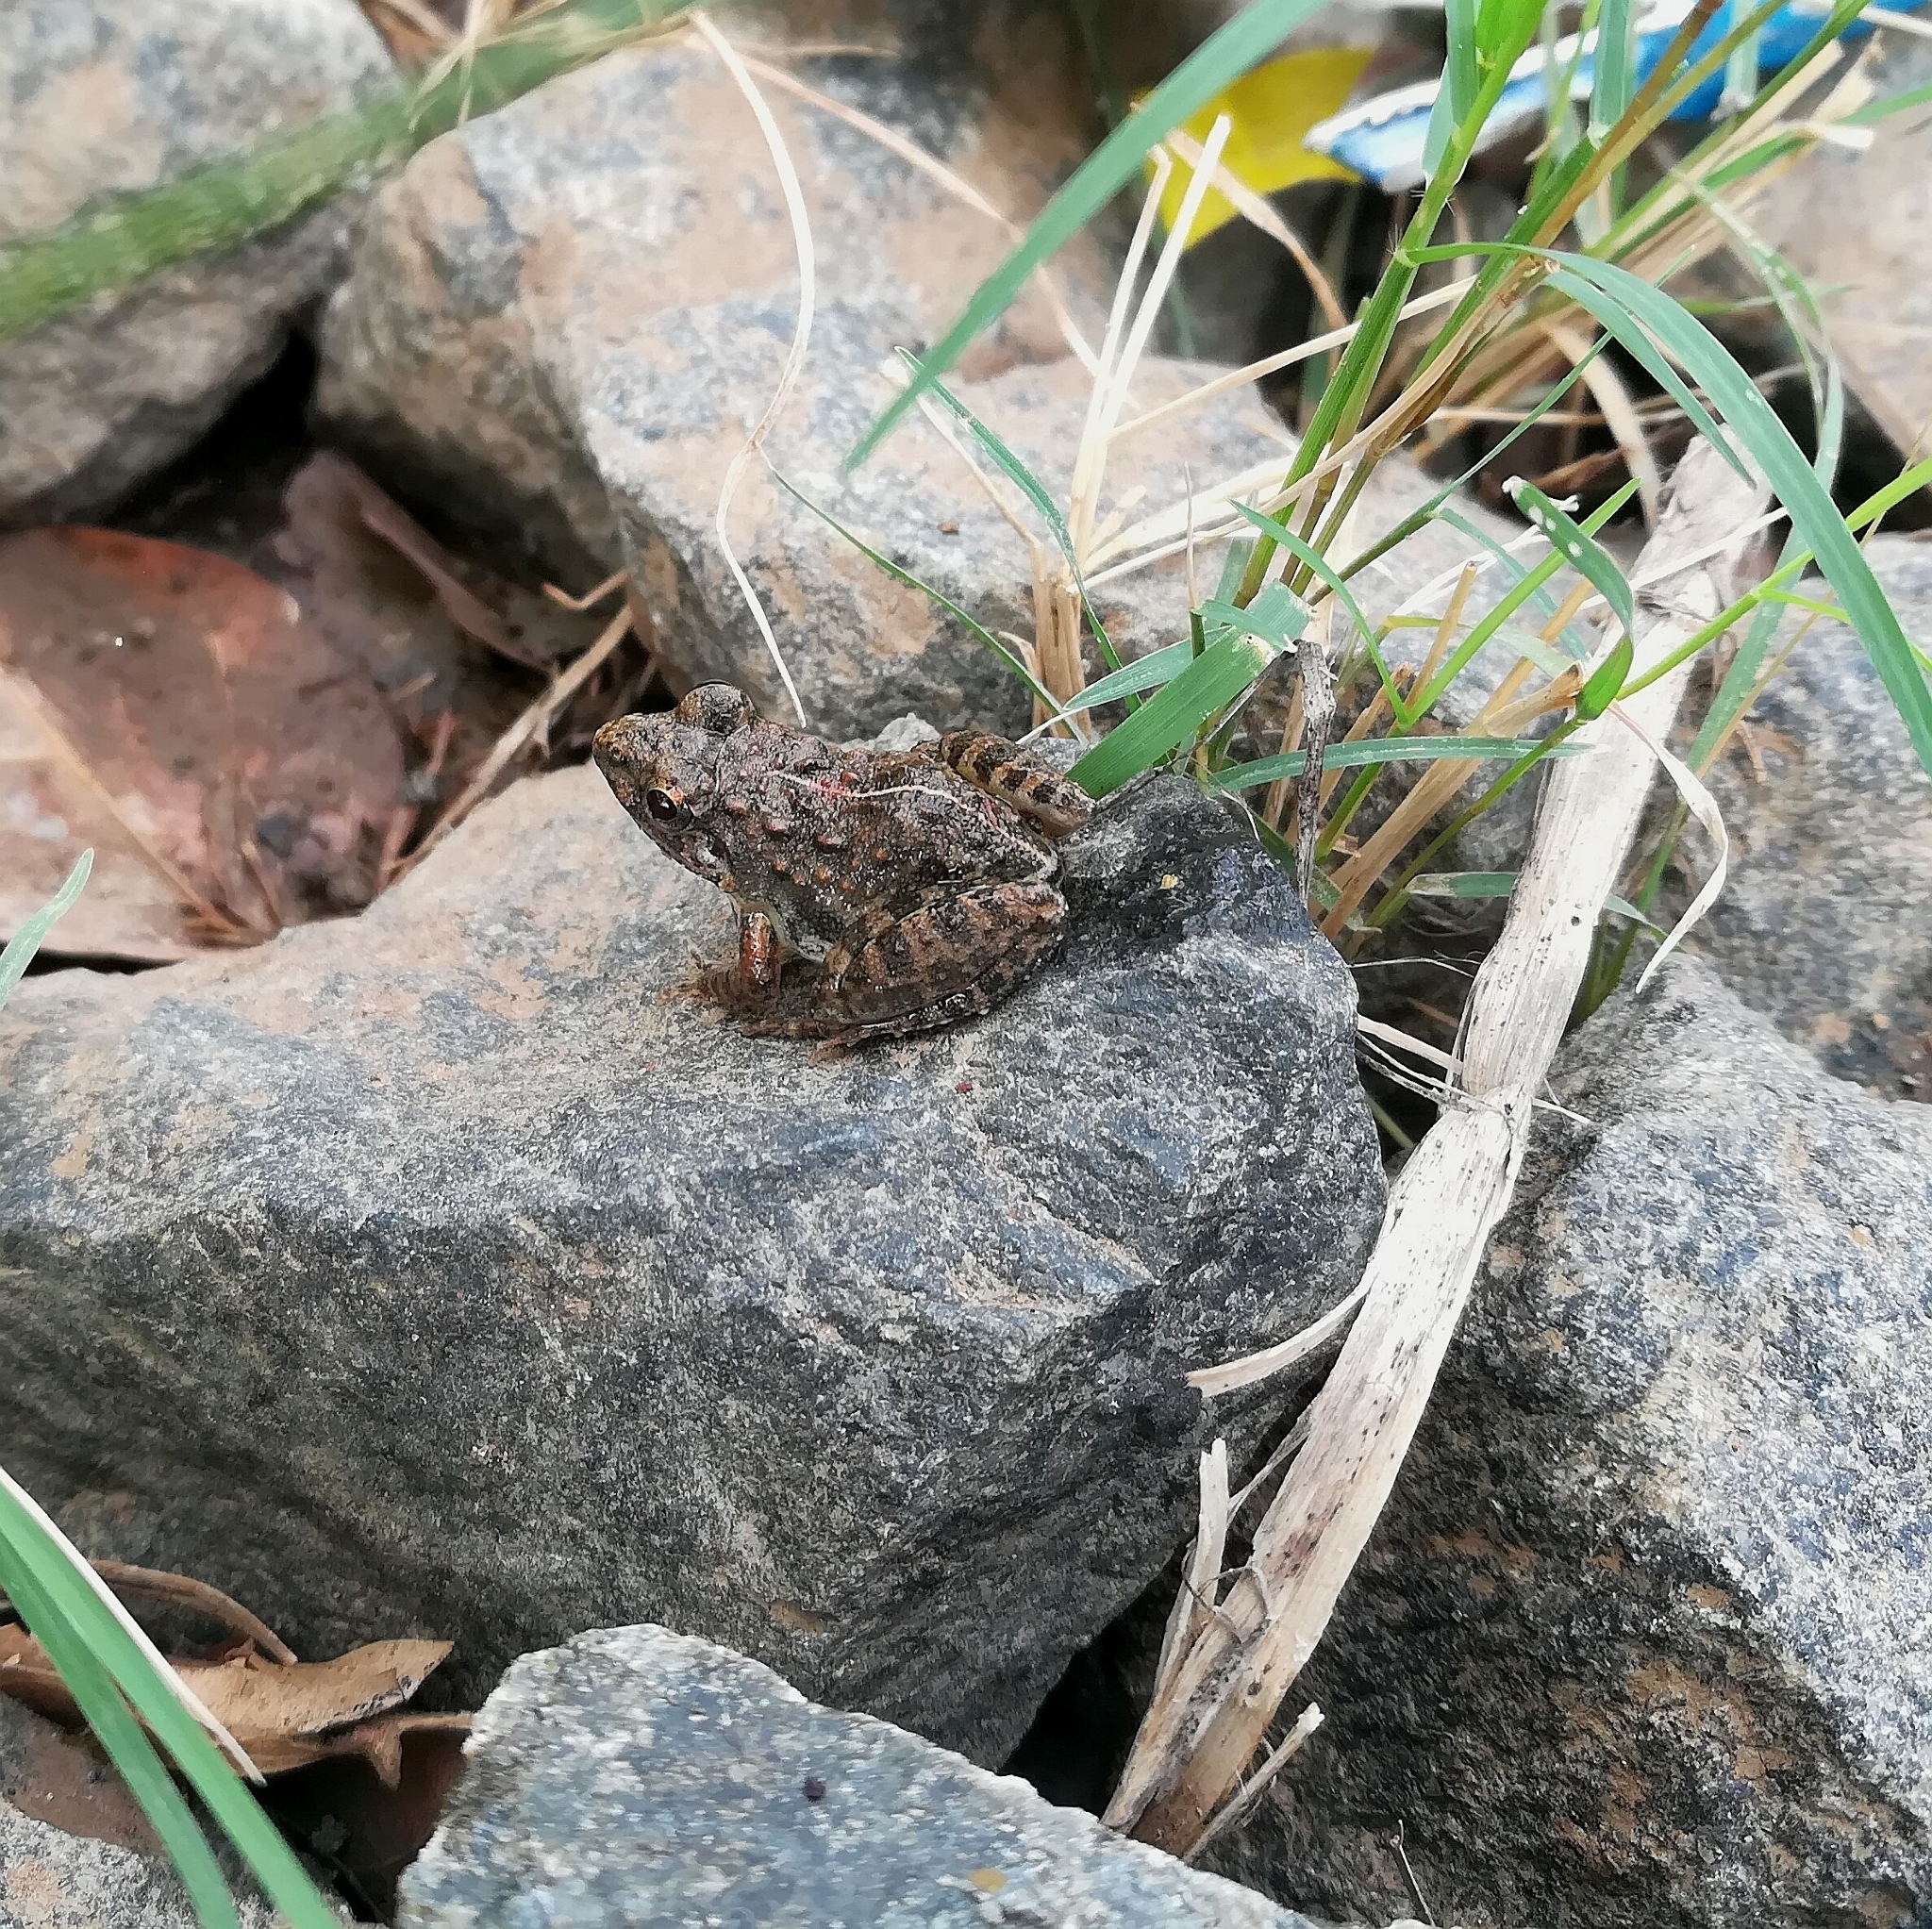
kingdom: Animalia
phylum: Chordata
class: Amphibia
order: Anura
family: Dicroglossidae
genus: Minervarya
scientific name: Minervarya agricola
